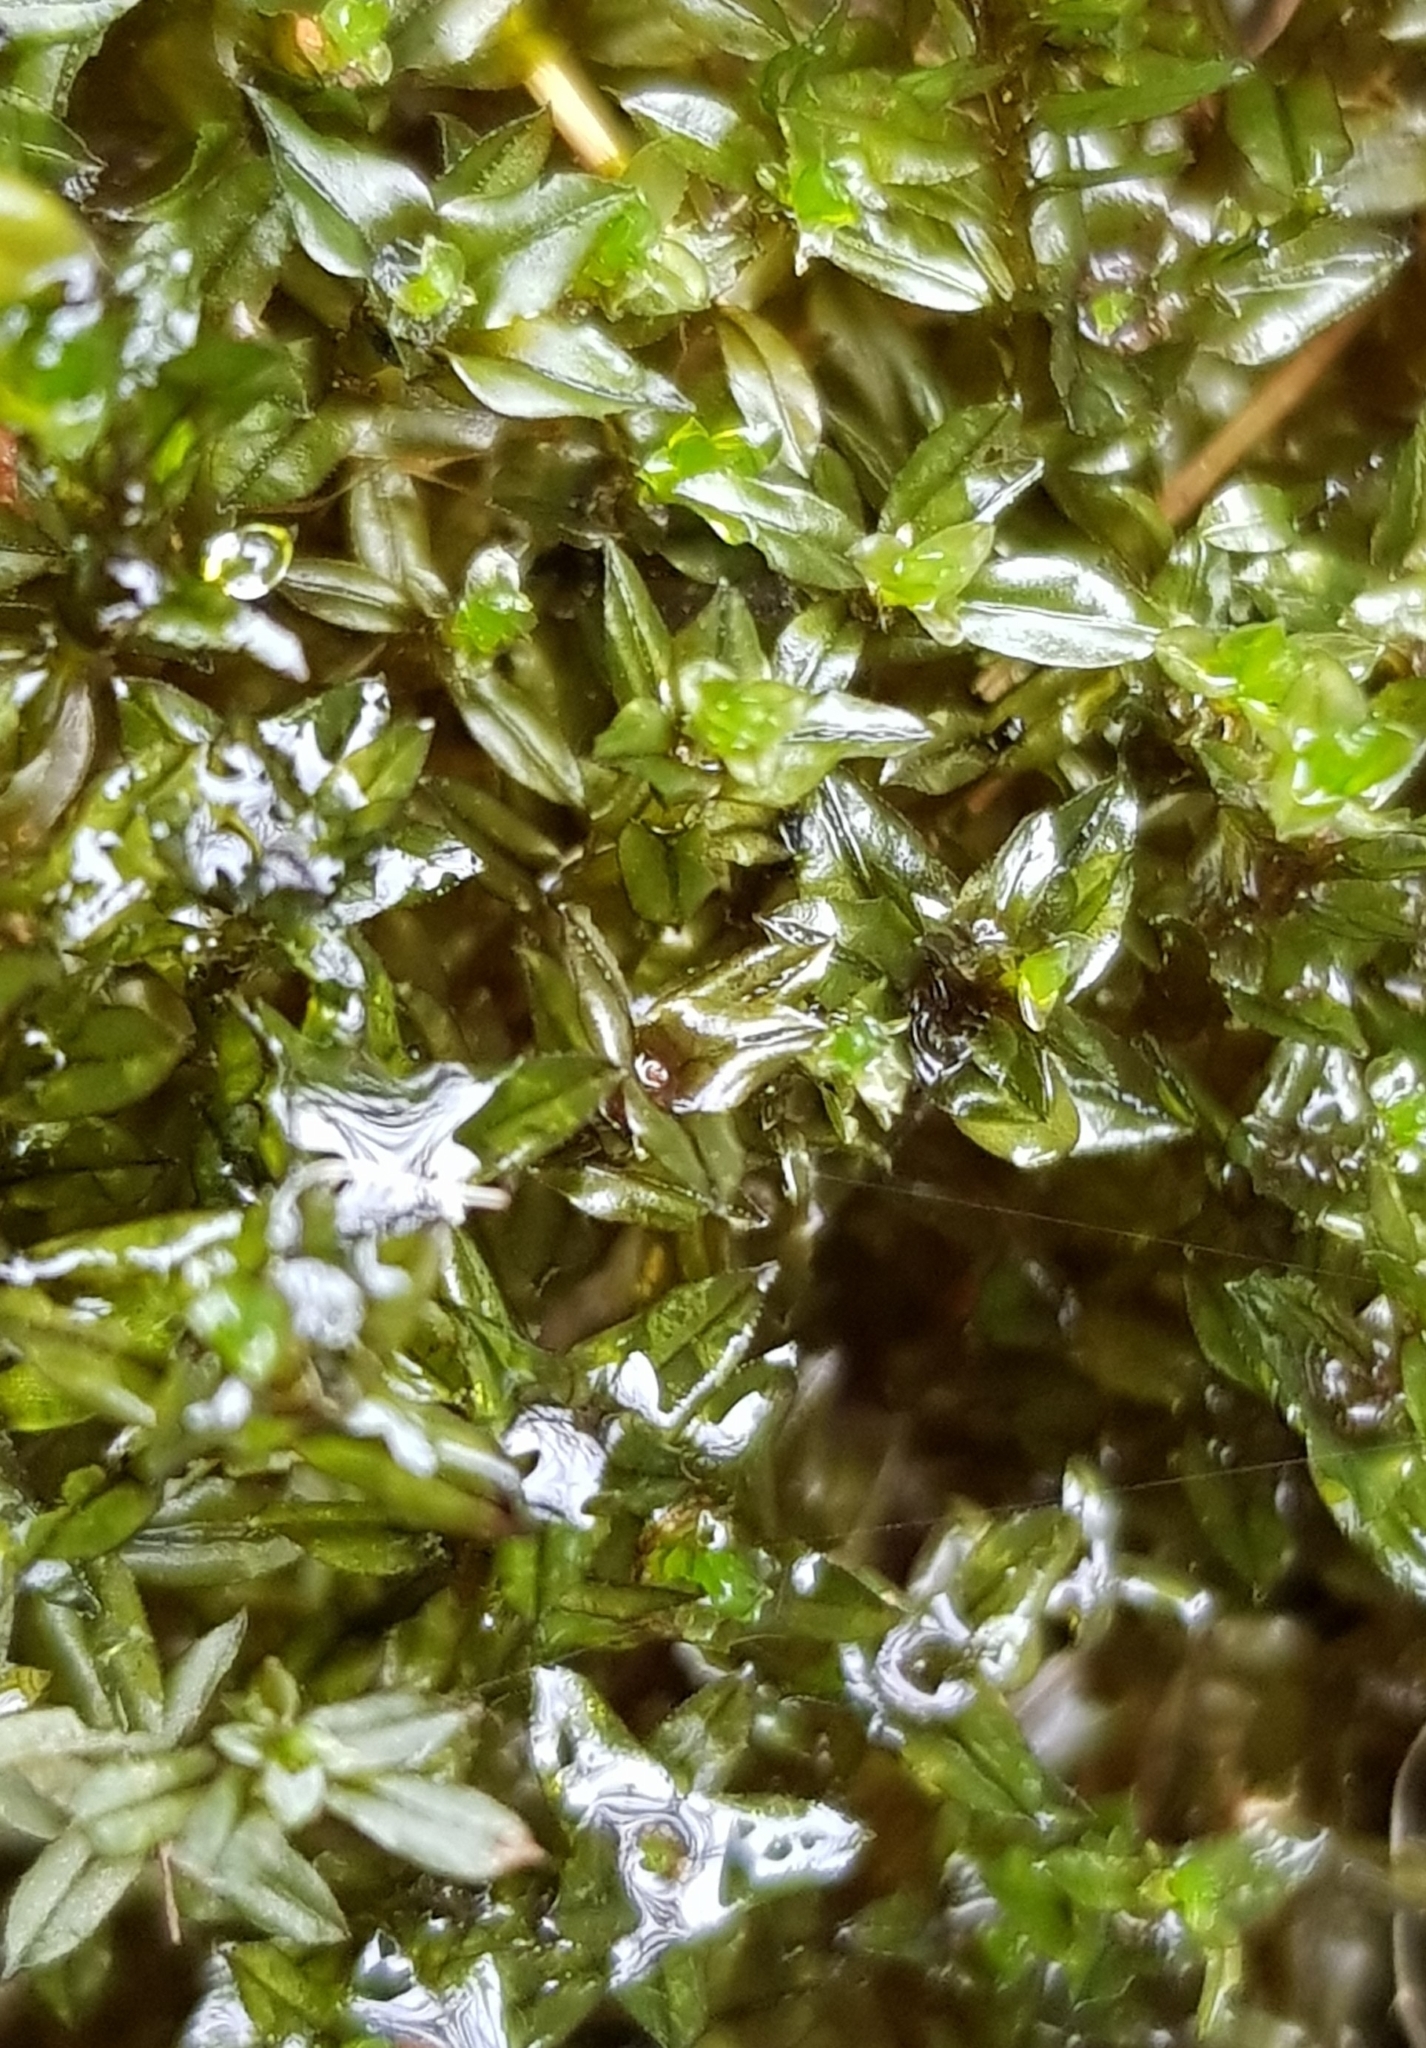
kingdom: Plantae
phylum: Bryophyta
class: Bryopsida
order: Bryales
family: Mniaceae
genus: Mnium
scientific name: Mnium hornum
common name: Swan's-neck leafy moss
